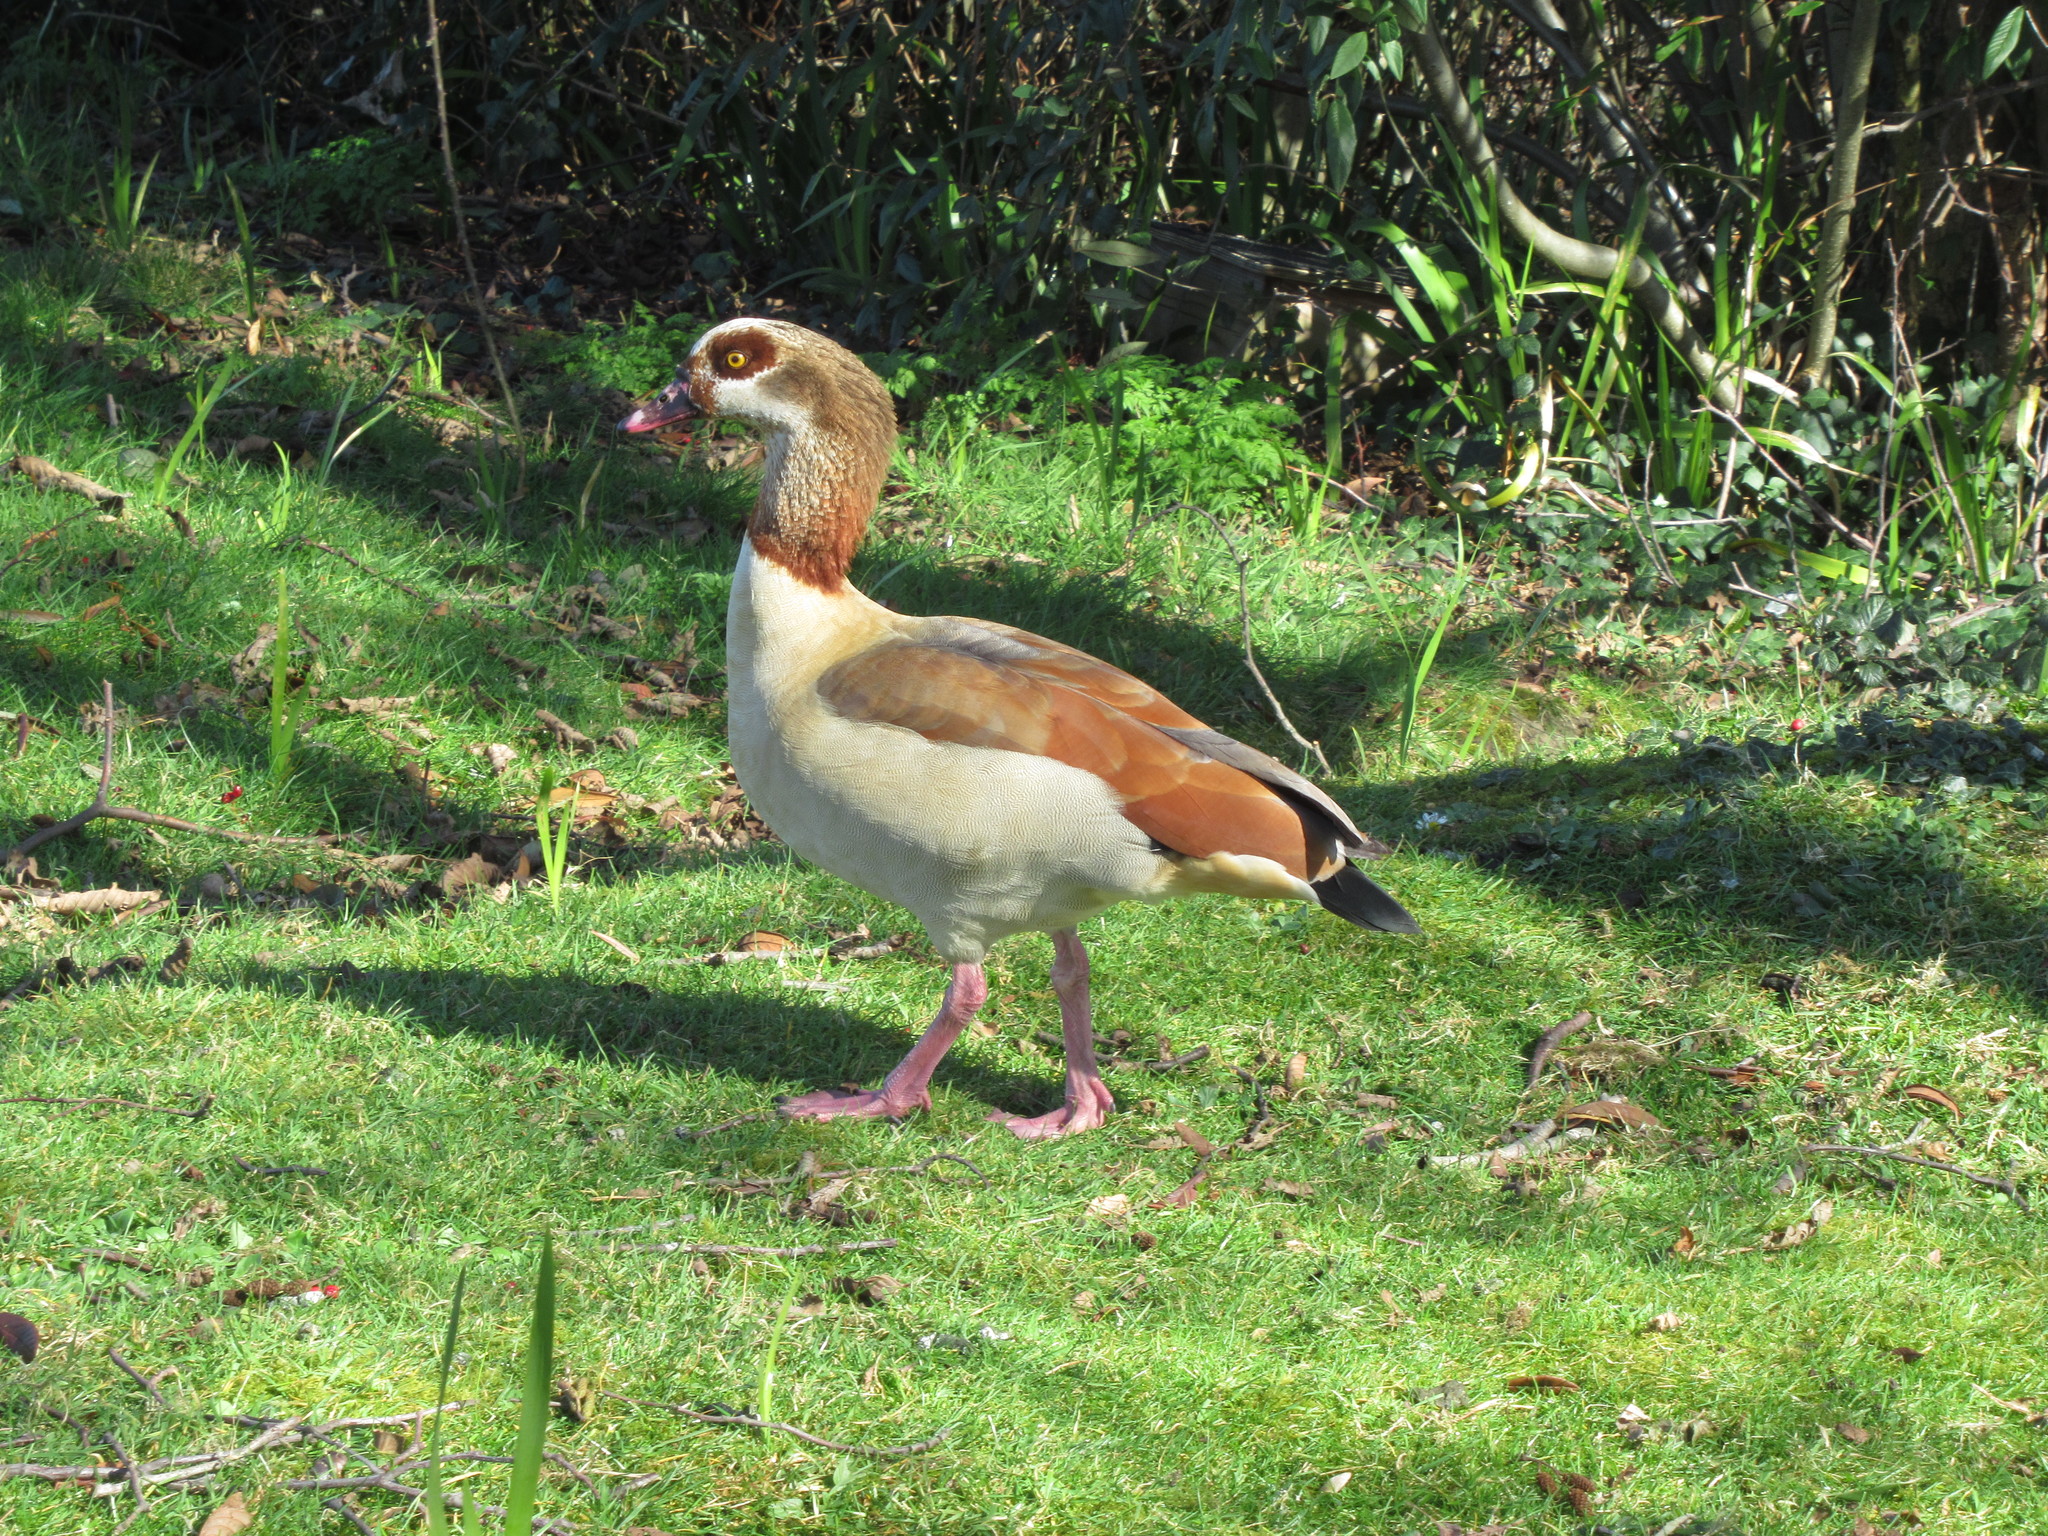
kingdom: Animalia
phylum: Chordata
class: Aves
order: Anseriformes
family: Anatidae
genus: Alopochen
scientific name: Alopochen aegyptiaca
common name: Egyptian goose
